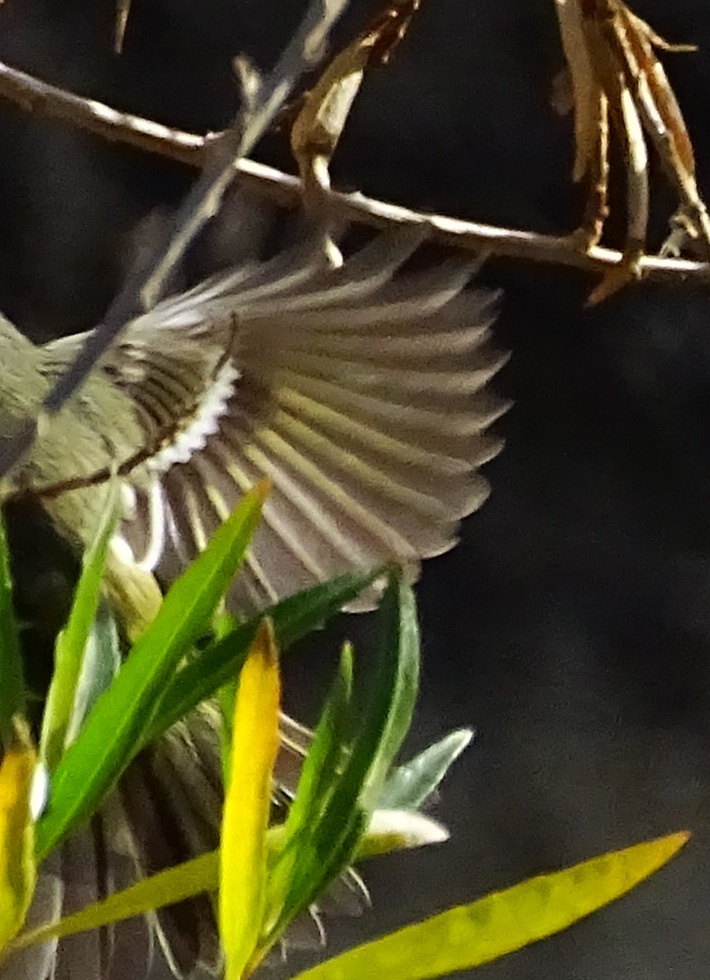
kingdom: Animalia
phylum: Chordata
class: Aves
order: Passeriformes
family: Regulidae
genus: Regulus
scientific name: Regulus calendula
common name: Ruby-crowned kinglet
